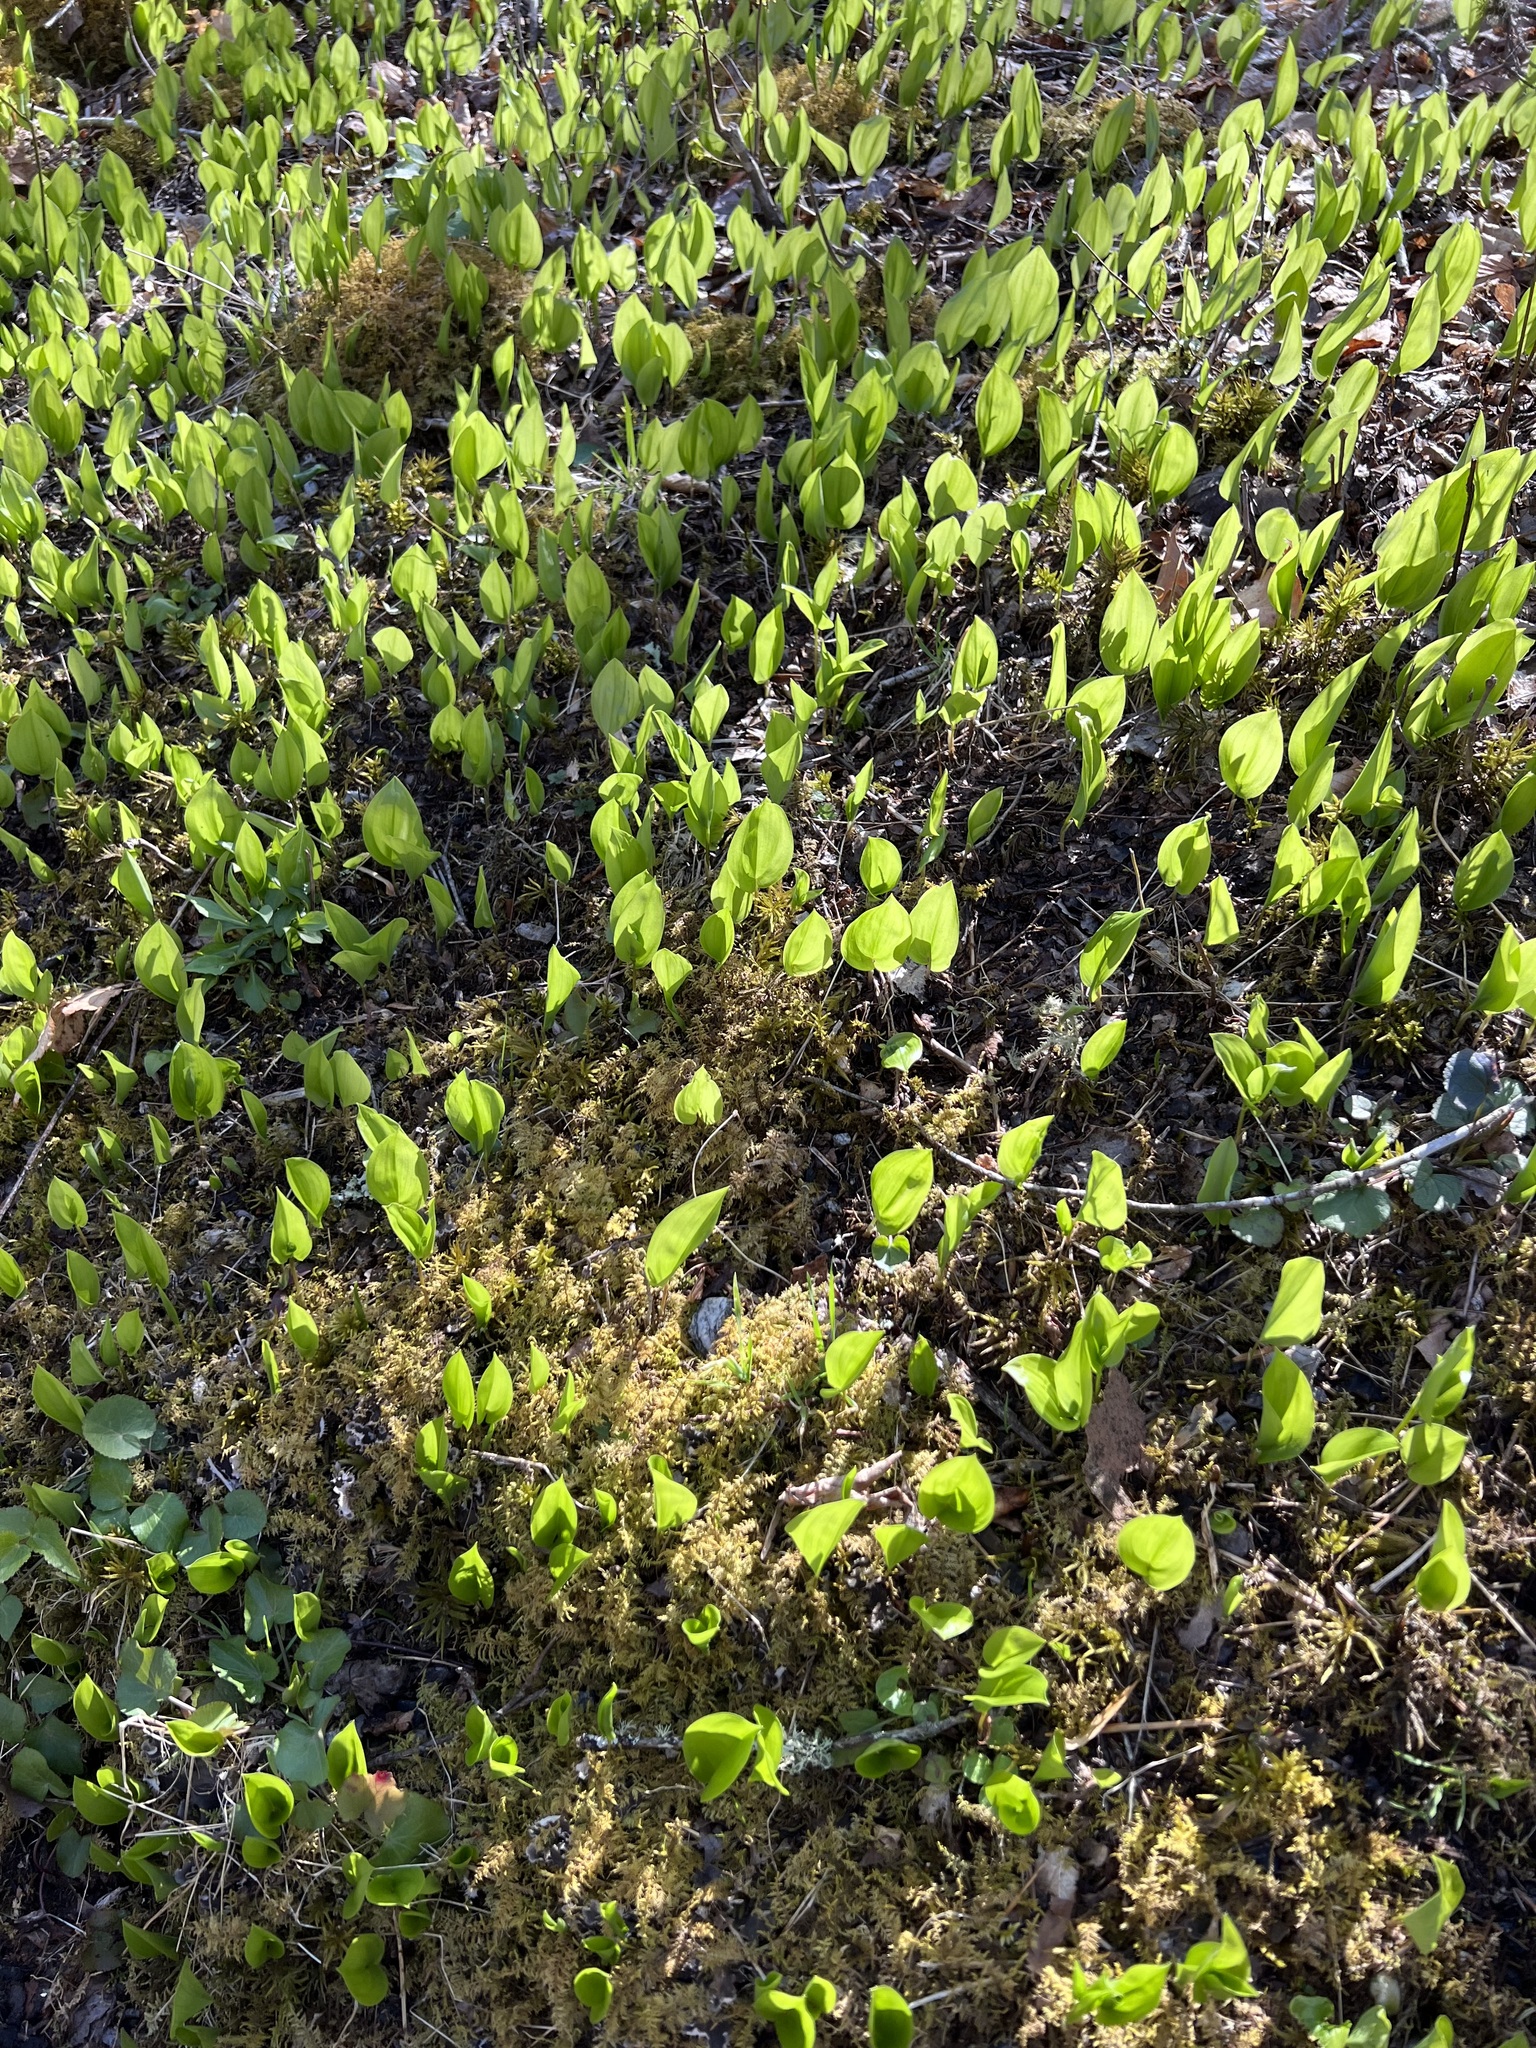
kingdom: Plantae
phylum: Tracheophyta
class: Liliopsida
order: Asparagales
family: Asparagaceae
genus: Maianthemum
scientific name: Maianthemum canadense
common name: False lily-of-the-valley
